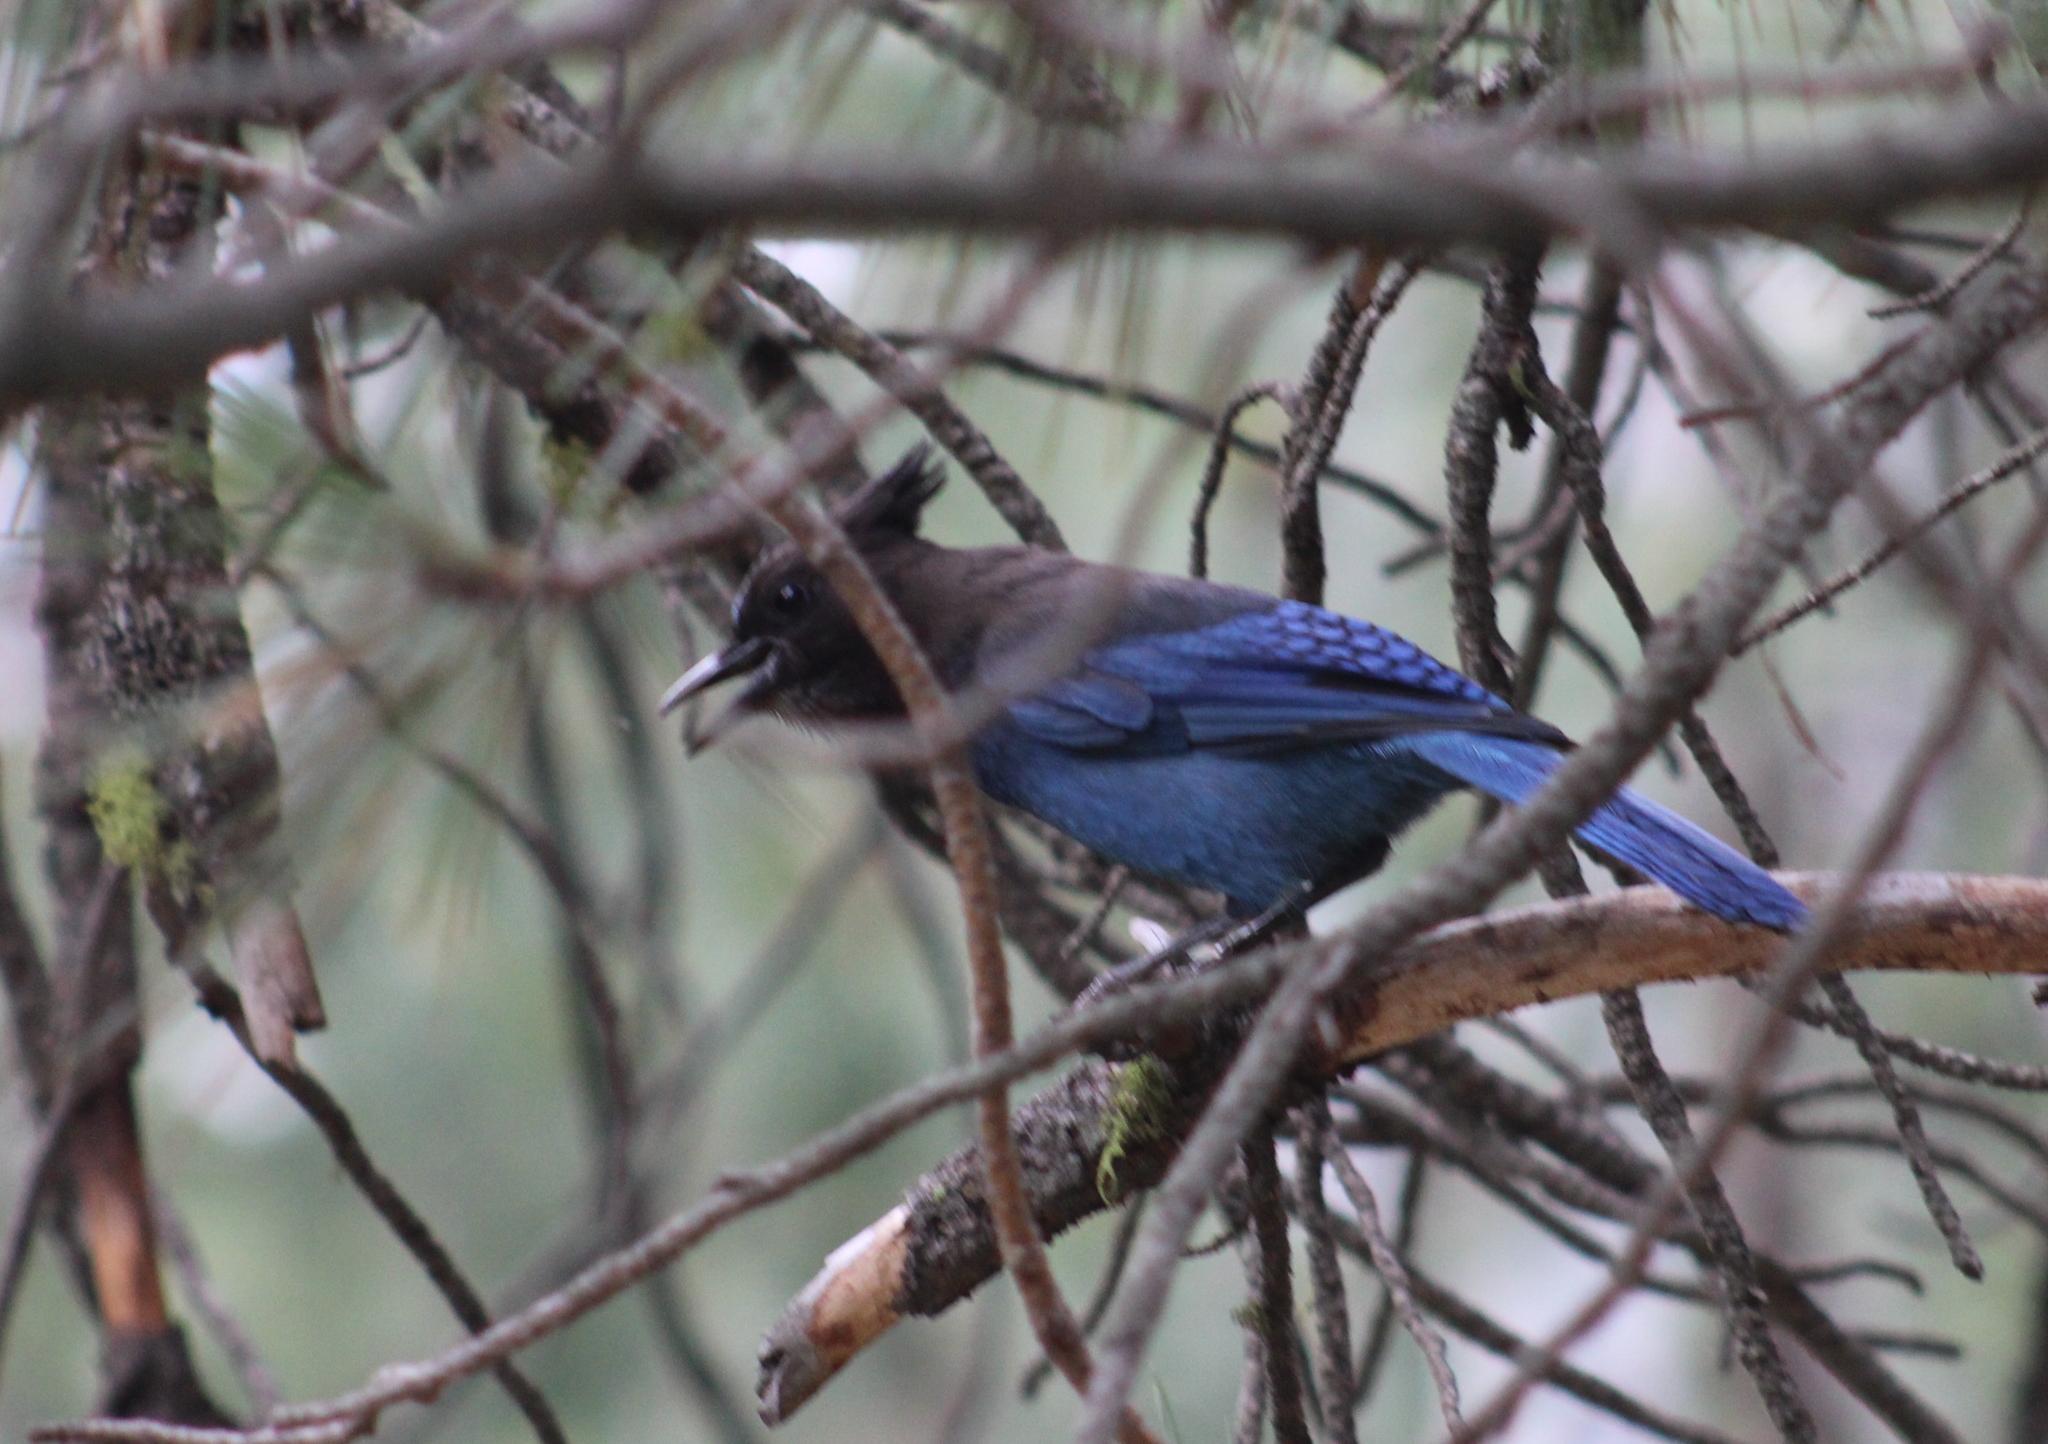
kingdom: Animalia
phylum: Chordata
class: Aves
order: Passeriformes
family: Corvidae
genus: Cyanocitta
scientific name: Cyanocitta stelleri
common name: Steller's jay
